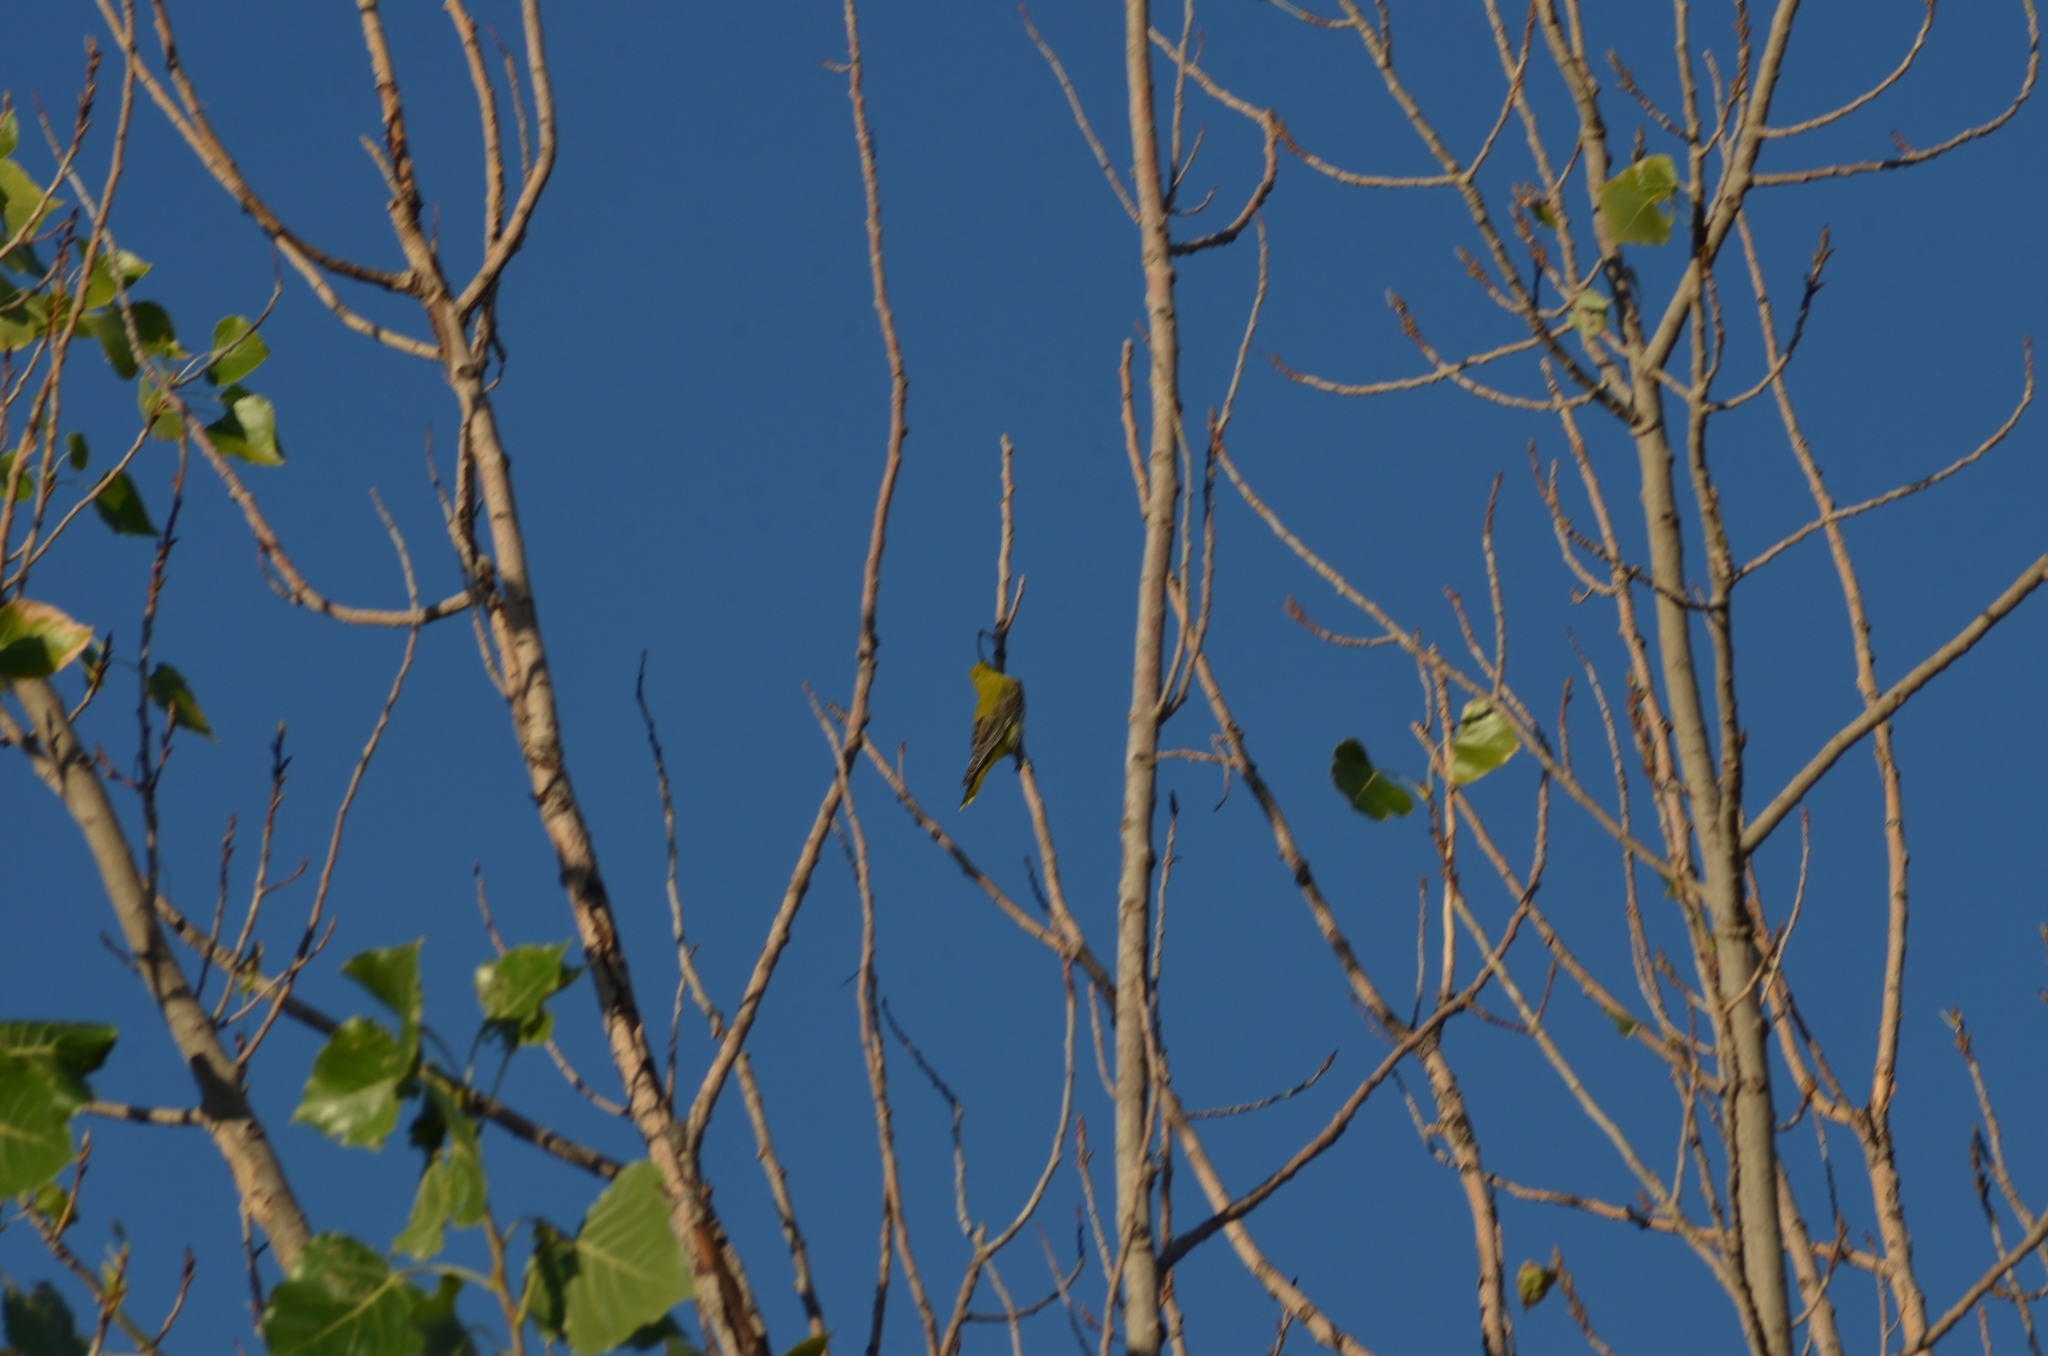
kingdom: Animalia
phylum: Chordata
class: Aves
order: Passeriformes
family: Oriolidae
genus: Oriolus
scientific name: Oriolus oriolus
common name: Eurasian golden oriole
